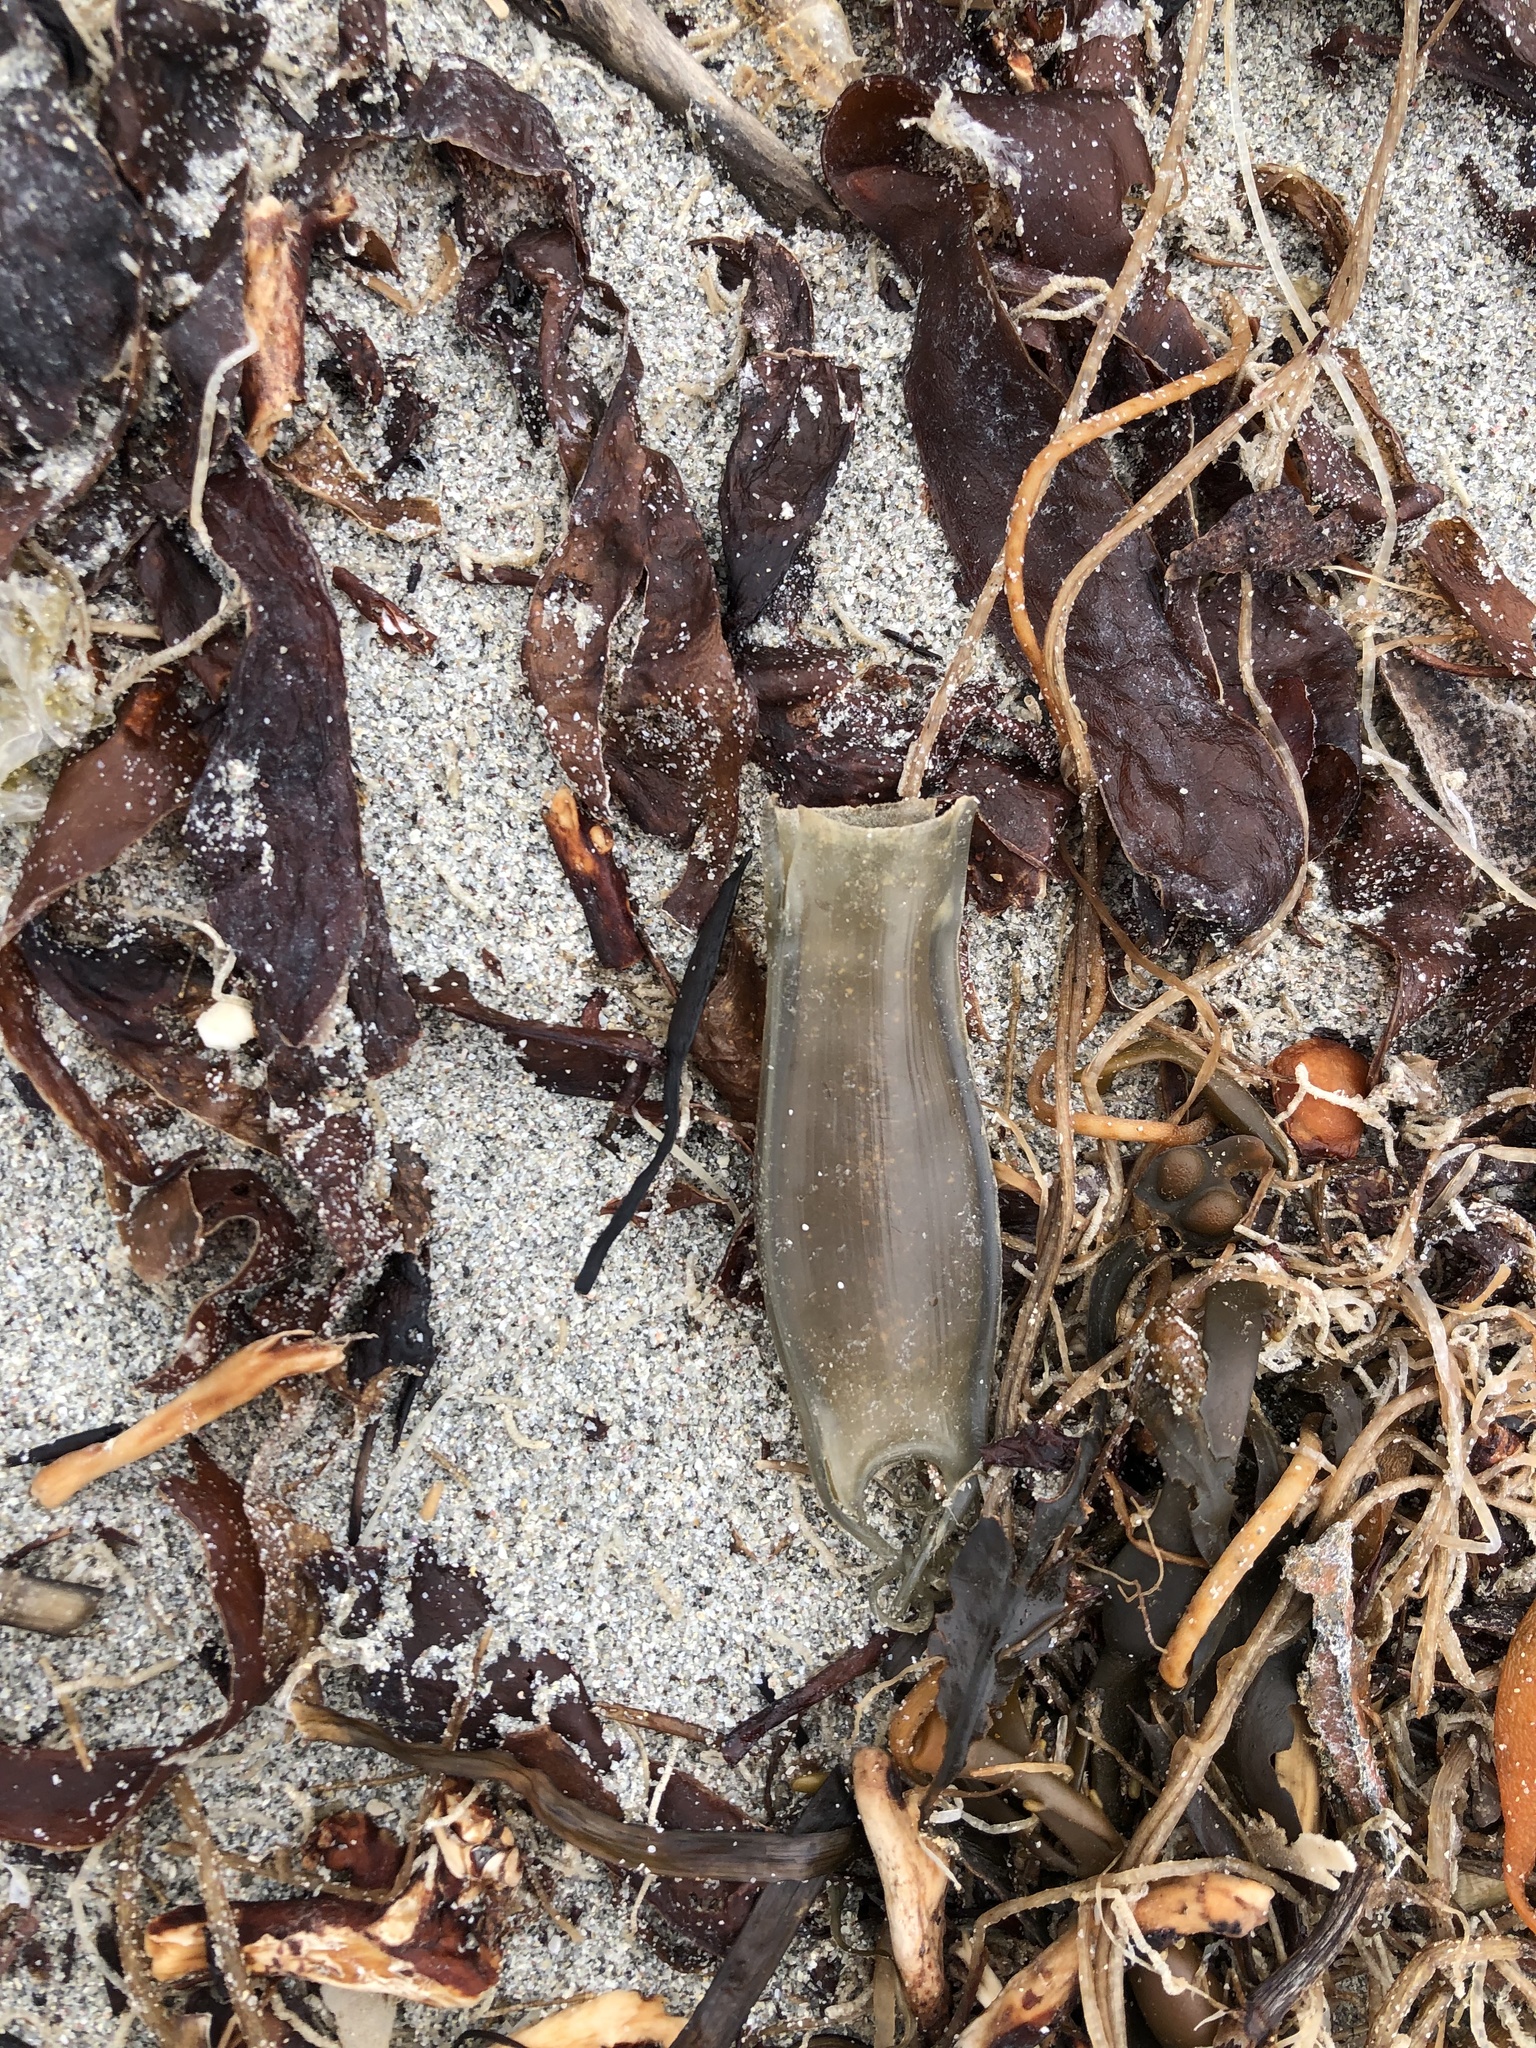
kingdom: Animalia
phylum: Chordata
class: Elasmobranchii
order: Carcharhiniformes
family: Scyliorhinidae
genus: Scyliorhinus
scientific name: Scyliorhinus canicula
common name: Lesser spotted dogfish
